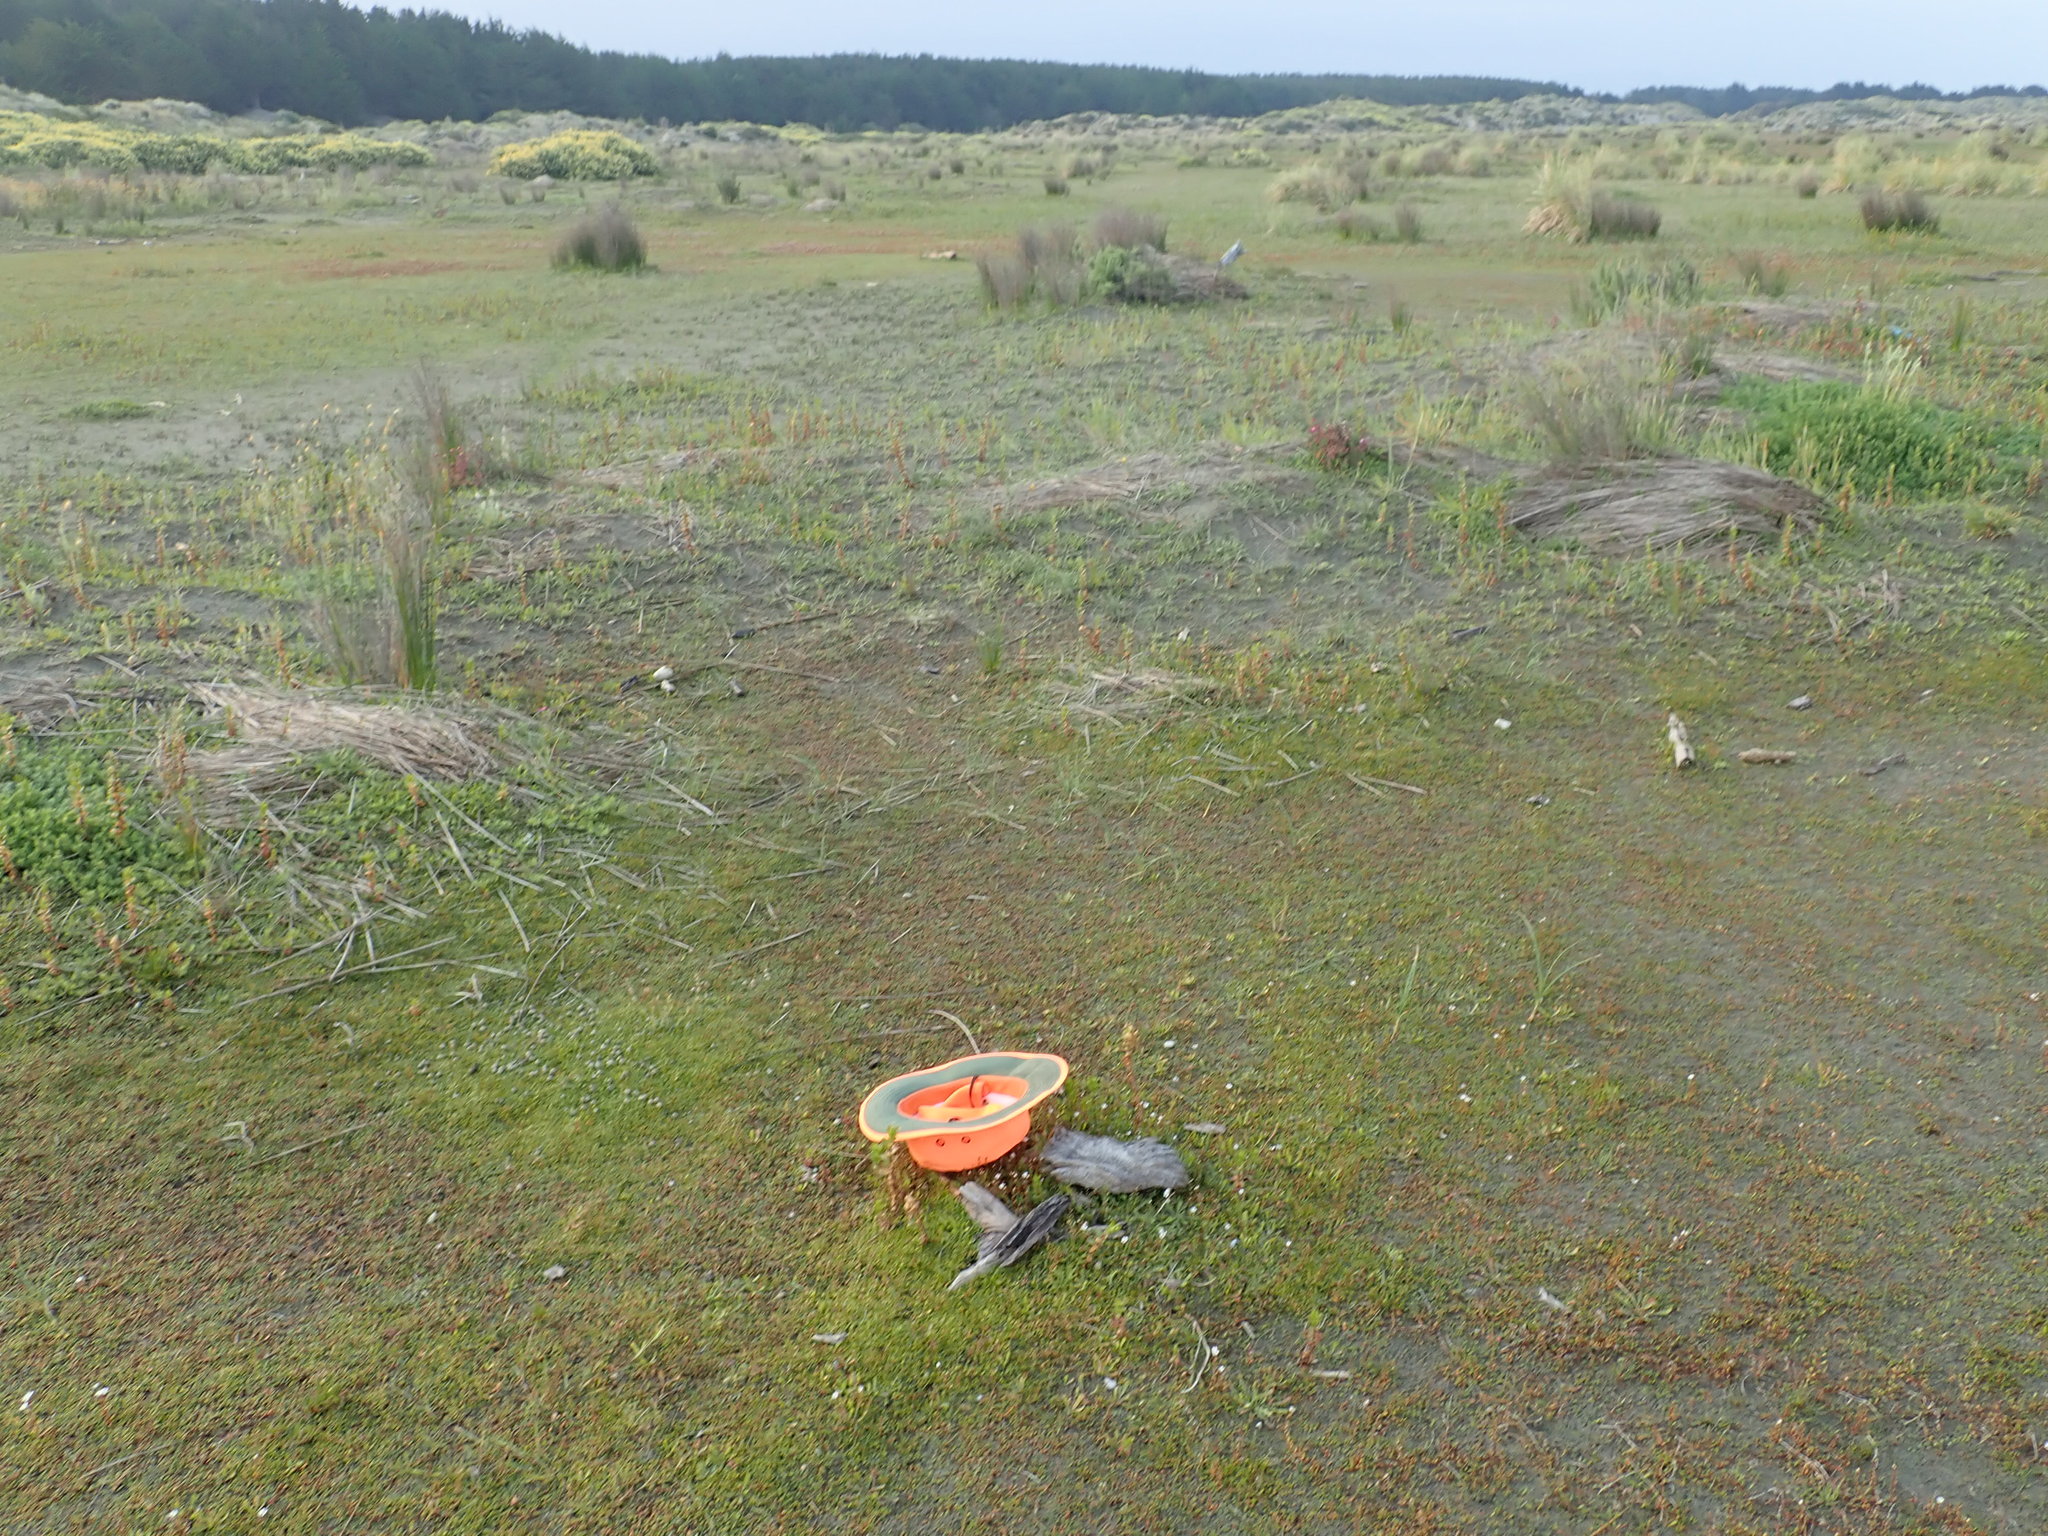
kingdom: Animalia
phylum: Arthropoda
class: Insecta
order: Dermaptera
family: Anisolabididae
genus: Anisolabis
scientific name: Anisolabis littorea
